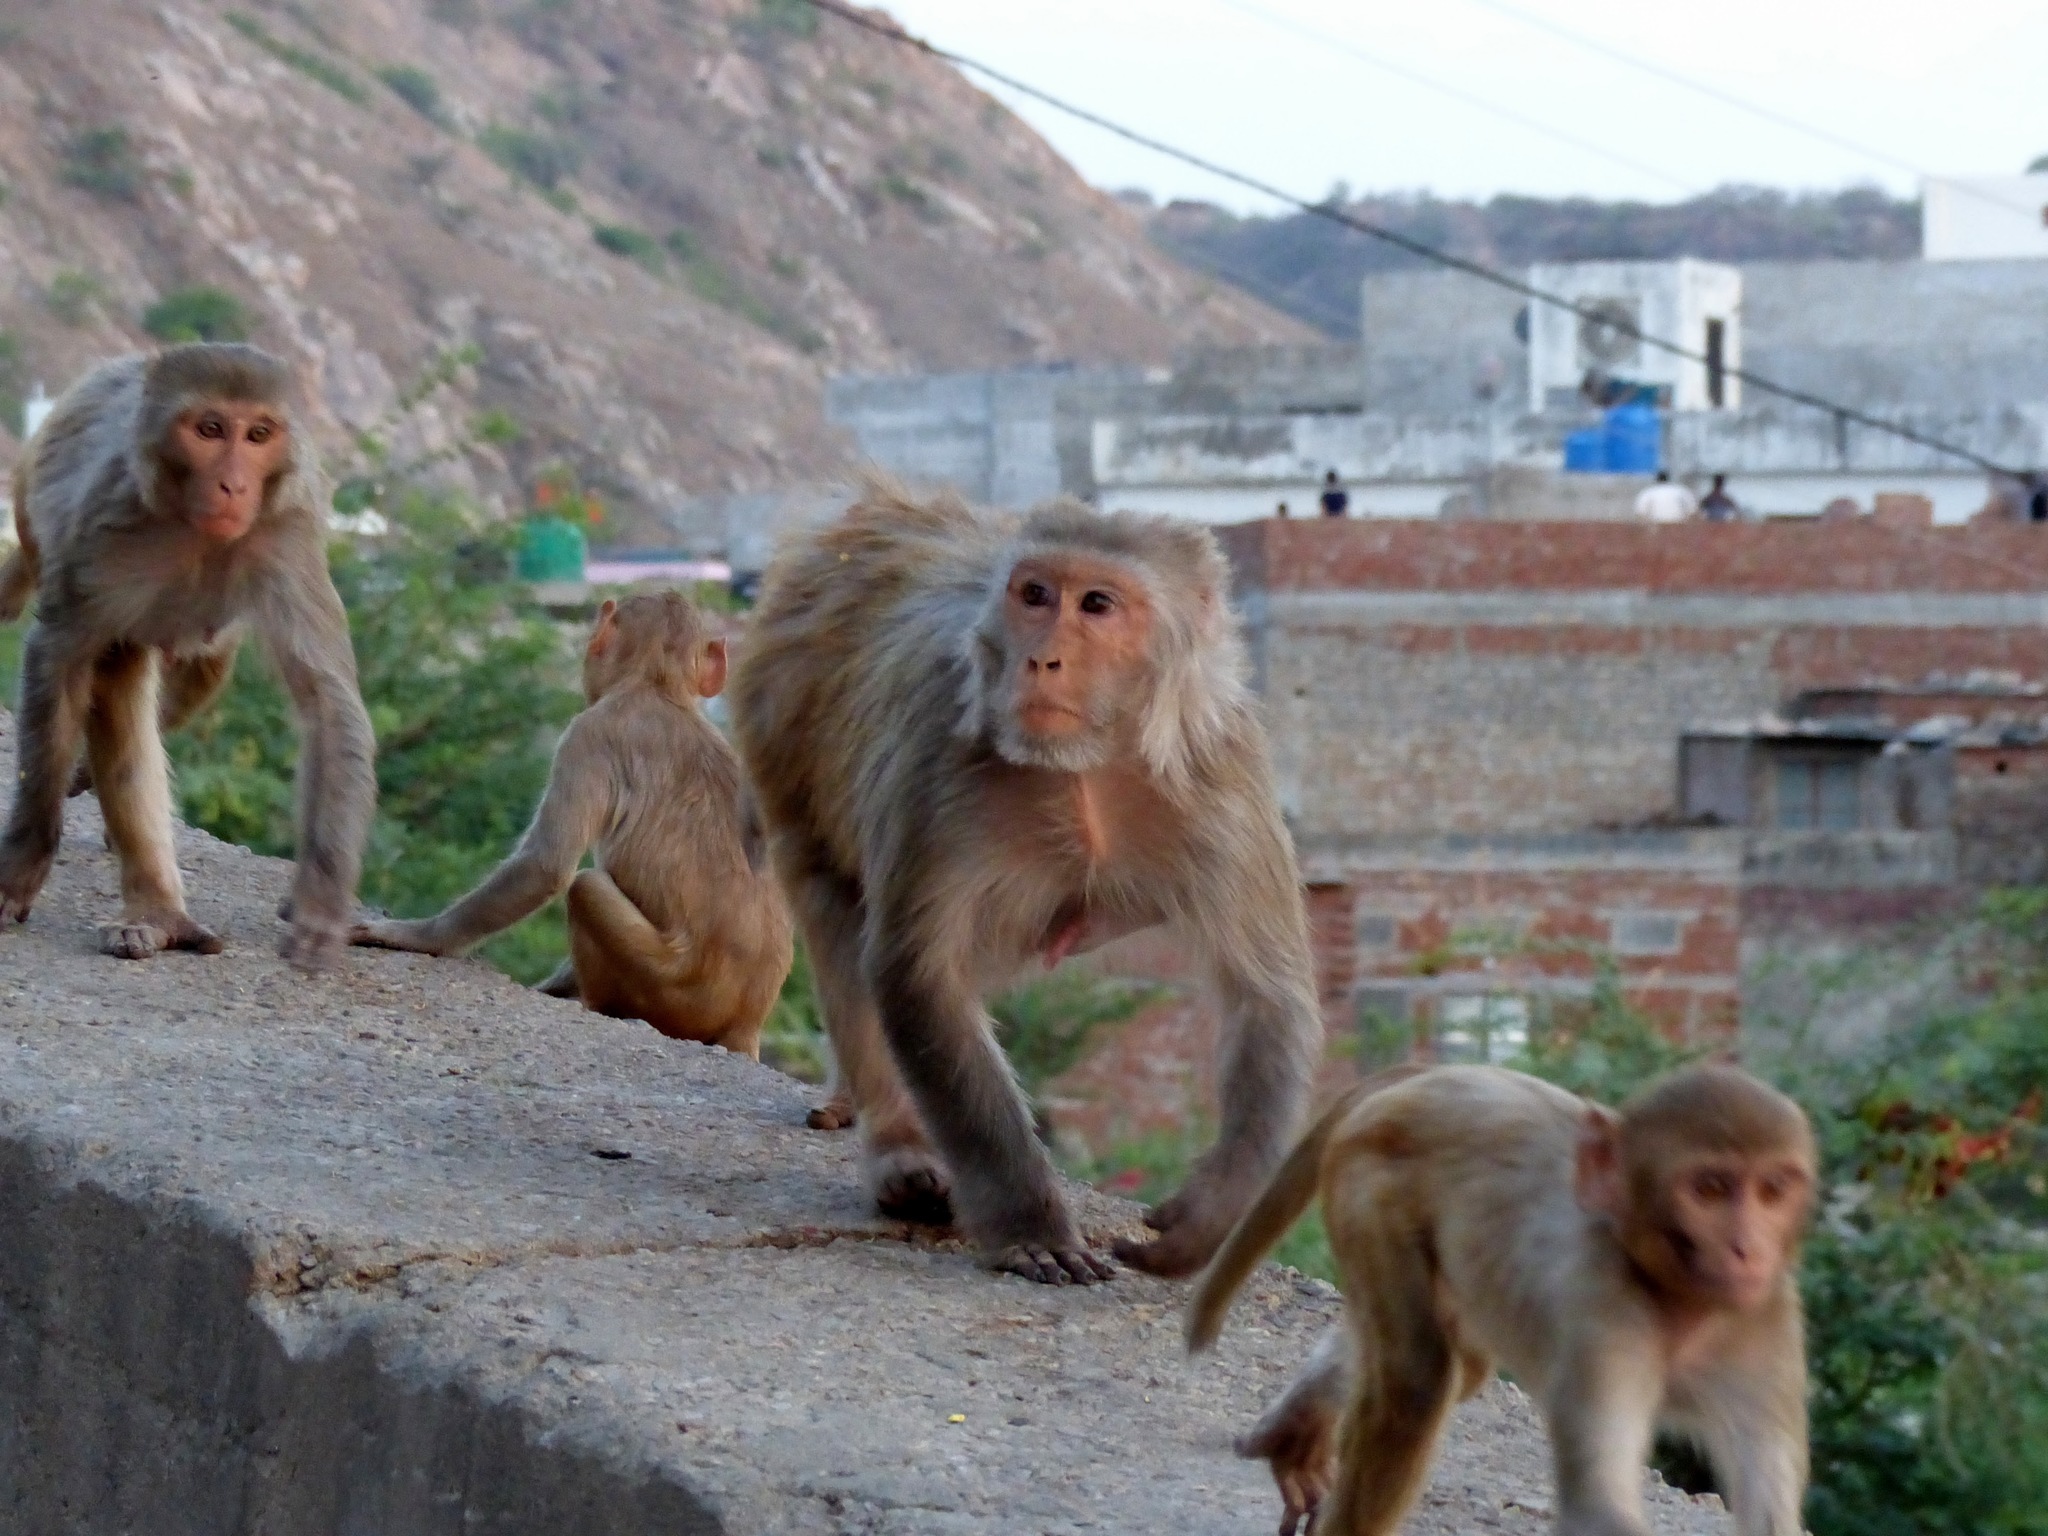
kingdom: Animalia
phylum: Chordata
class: Mammalia
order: Primates
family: Cercopithecidae
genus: Macaca
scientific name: Macaca mulatta
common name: Rhesus monkey
